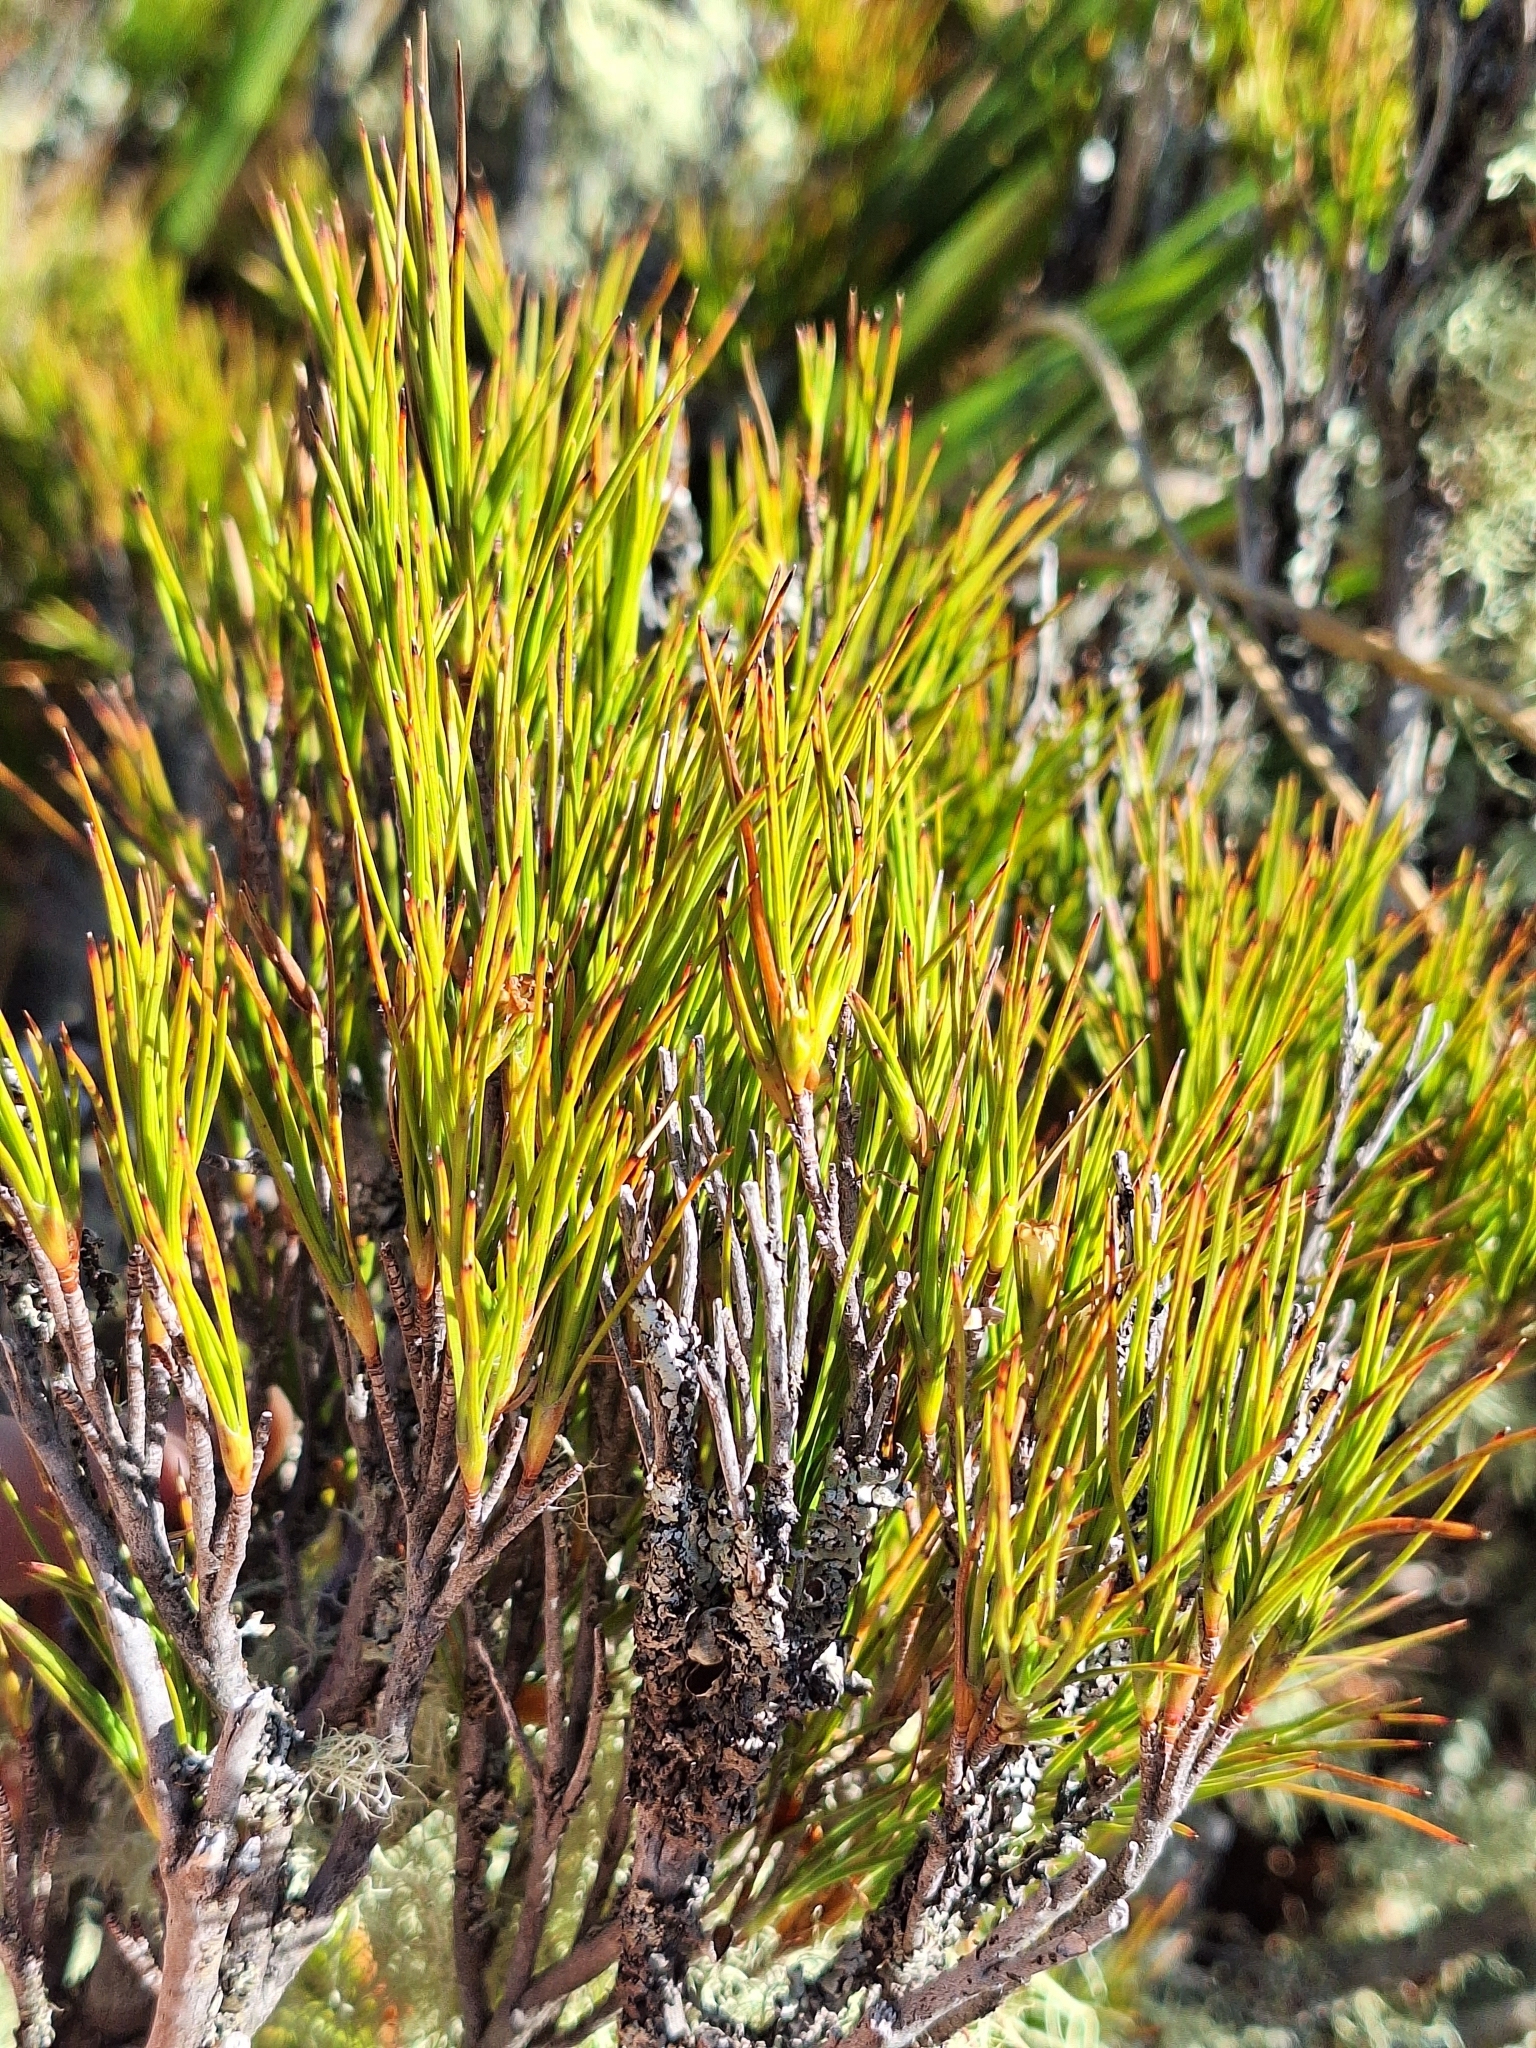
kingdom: Plantae
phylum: Tracheophyta
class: Magnoliopsida
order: Ericales
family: Ericaceae
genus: Dracophyllum
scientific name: Dracophyllum rosmarinifolium
